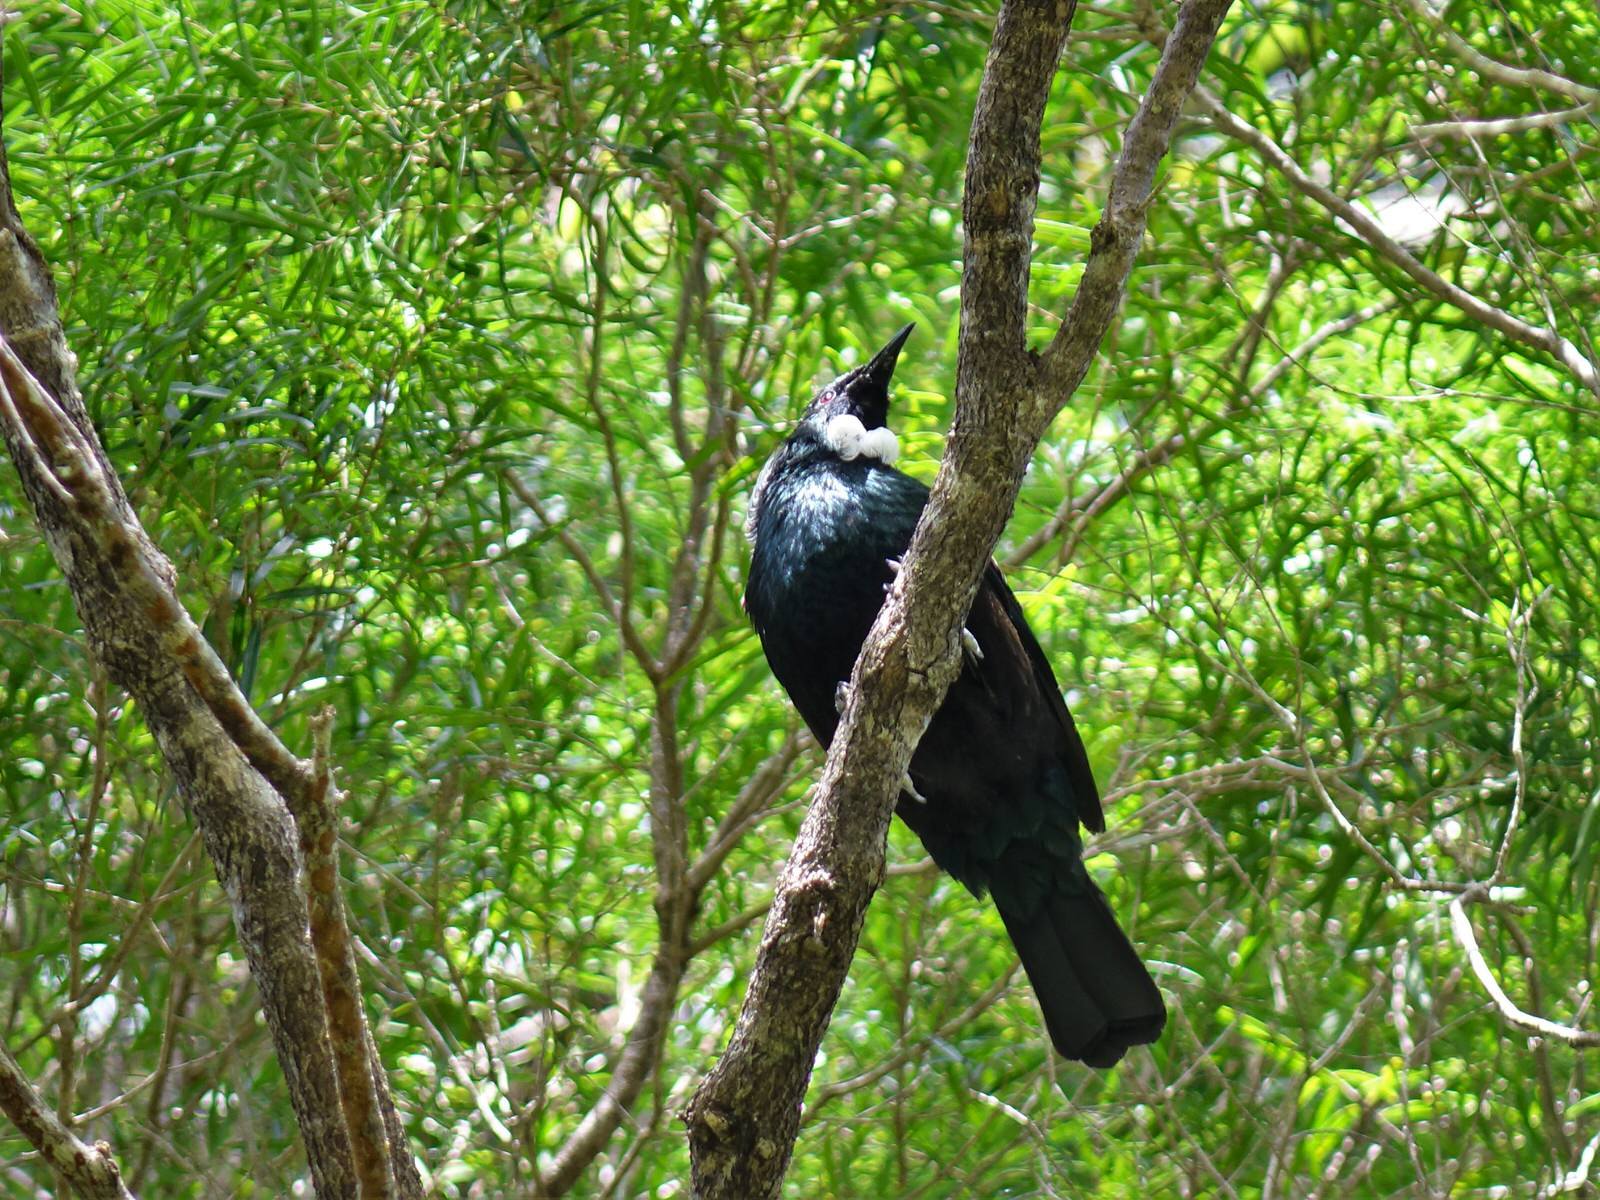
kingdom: Animalia
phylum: Chordata
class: Aves
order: Passeriformes
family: Meliphagidae
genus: Prosthemadera
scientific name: Prosthemadera novaeseelandiae
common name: Tui
